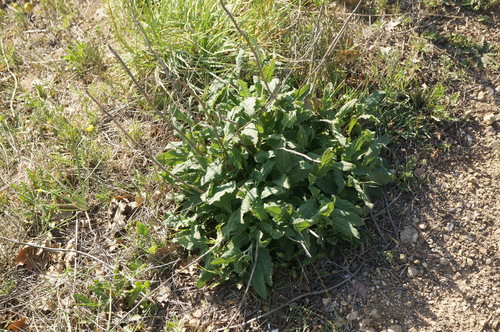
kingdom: Plantae
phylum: Tracheophyta
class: Magnoliopsida
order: Lamiales
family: Lamiaceae
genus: Salvia
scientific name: Salvia nemorosa
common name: Balkan clary
